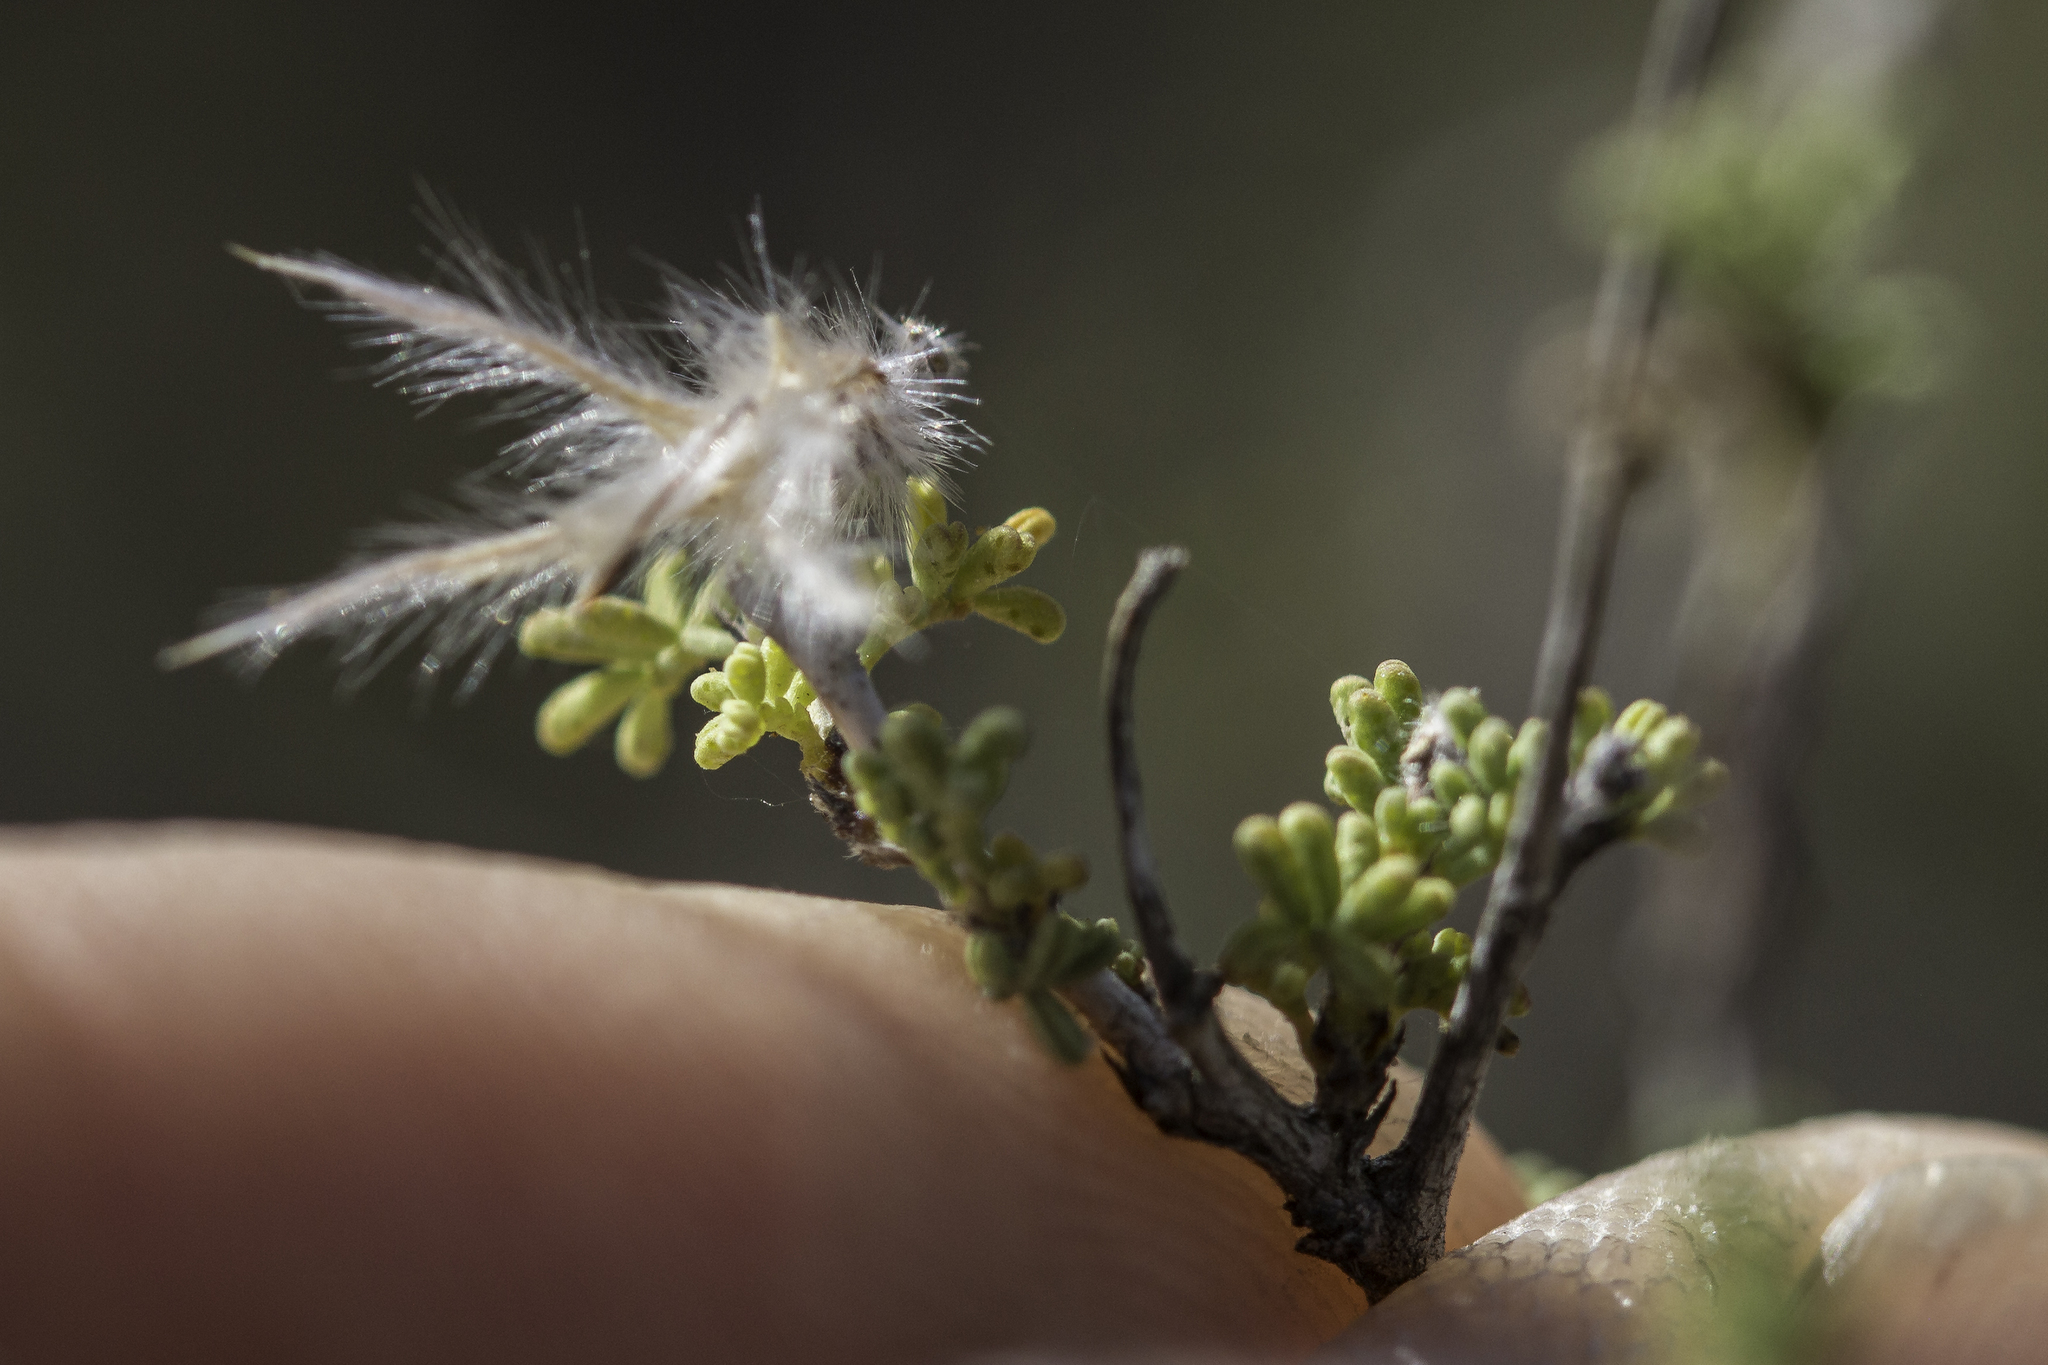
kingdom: Plantae
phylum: Tracheophyta
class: Magnoliopsida
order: Fabales
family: Fabaceae
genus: Dalea
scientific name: Dalea formosa
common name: Feather-plume dalea
